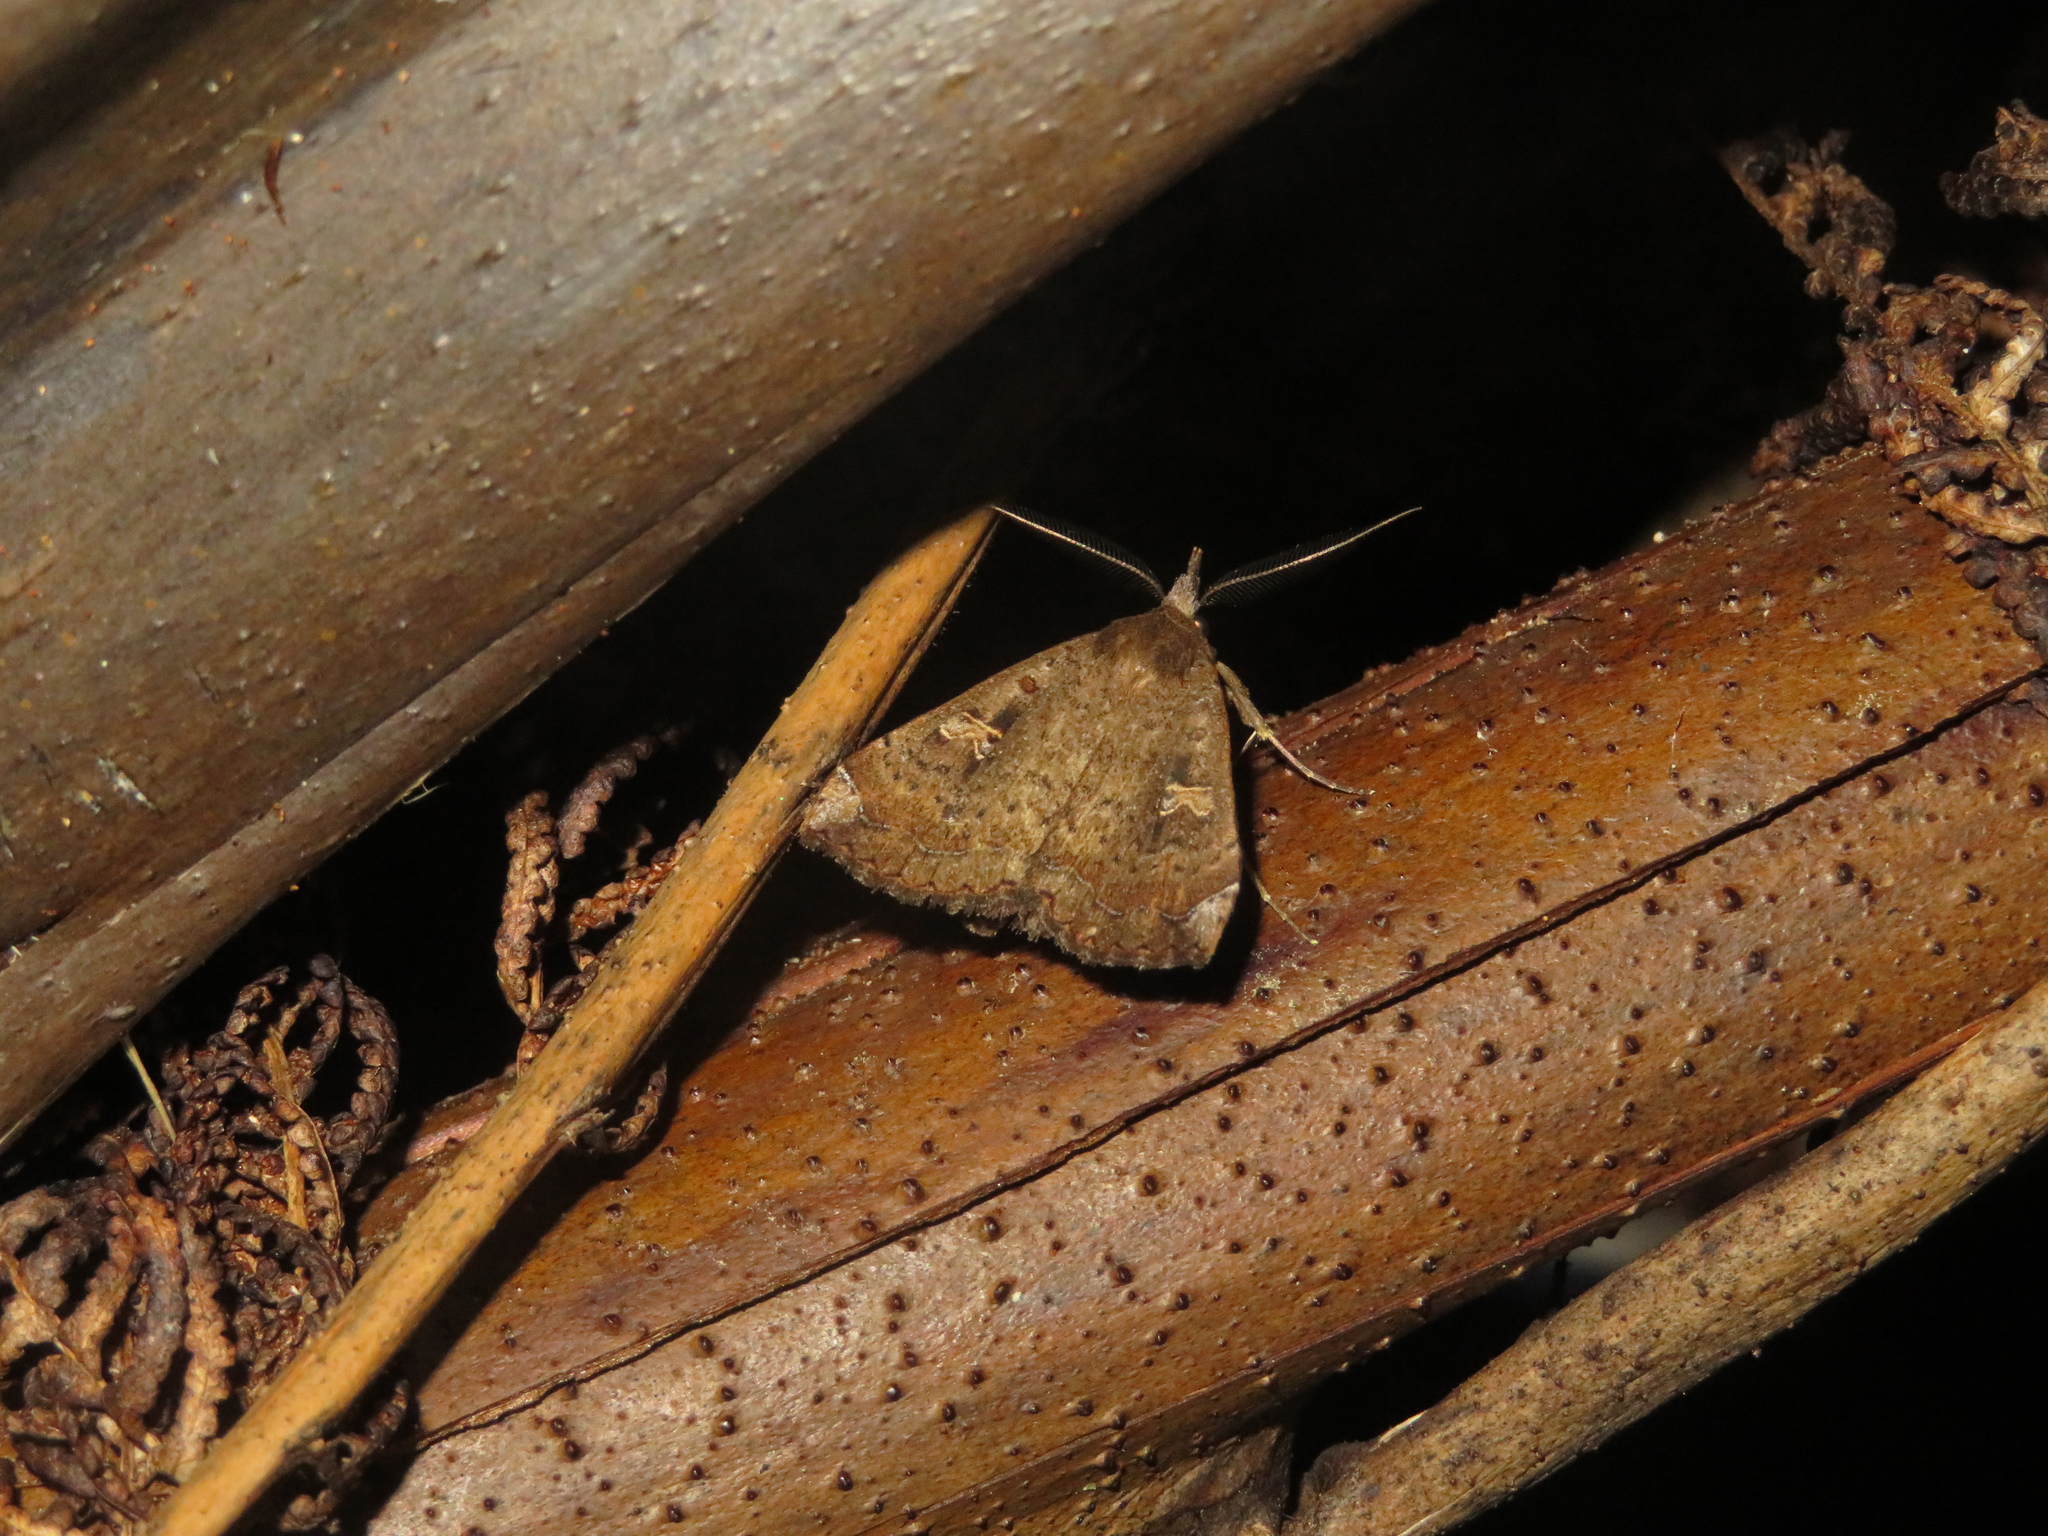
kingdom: Animalia
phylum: Arthropoda
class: Insecta
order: Lepidoptera
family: Erebidae
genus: Rhapsa
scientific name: Rhapsa scotosialis
